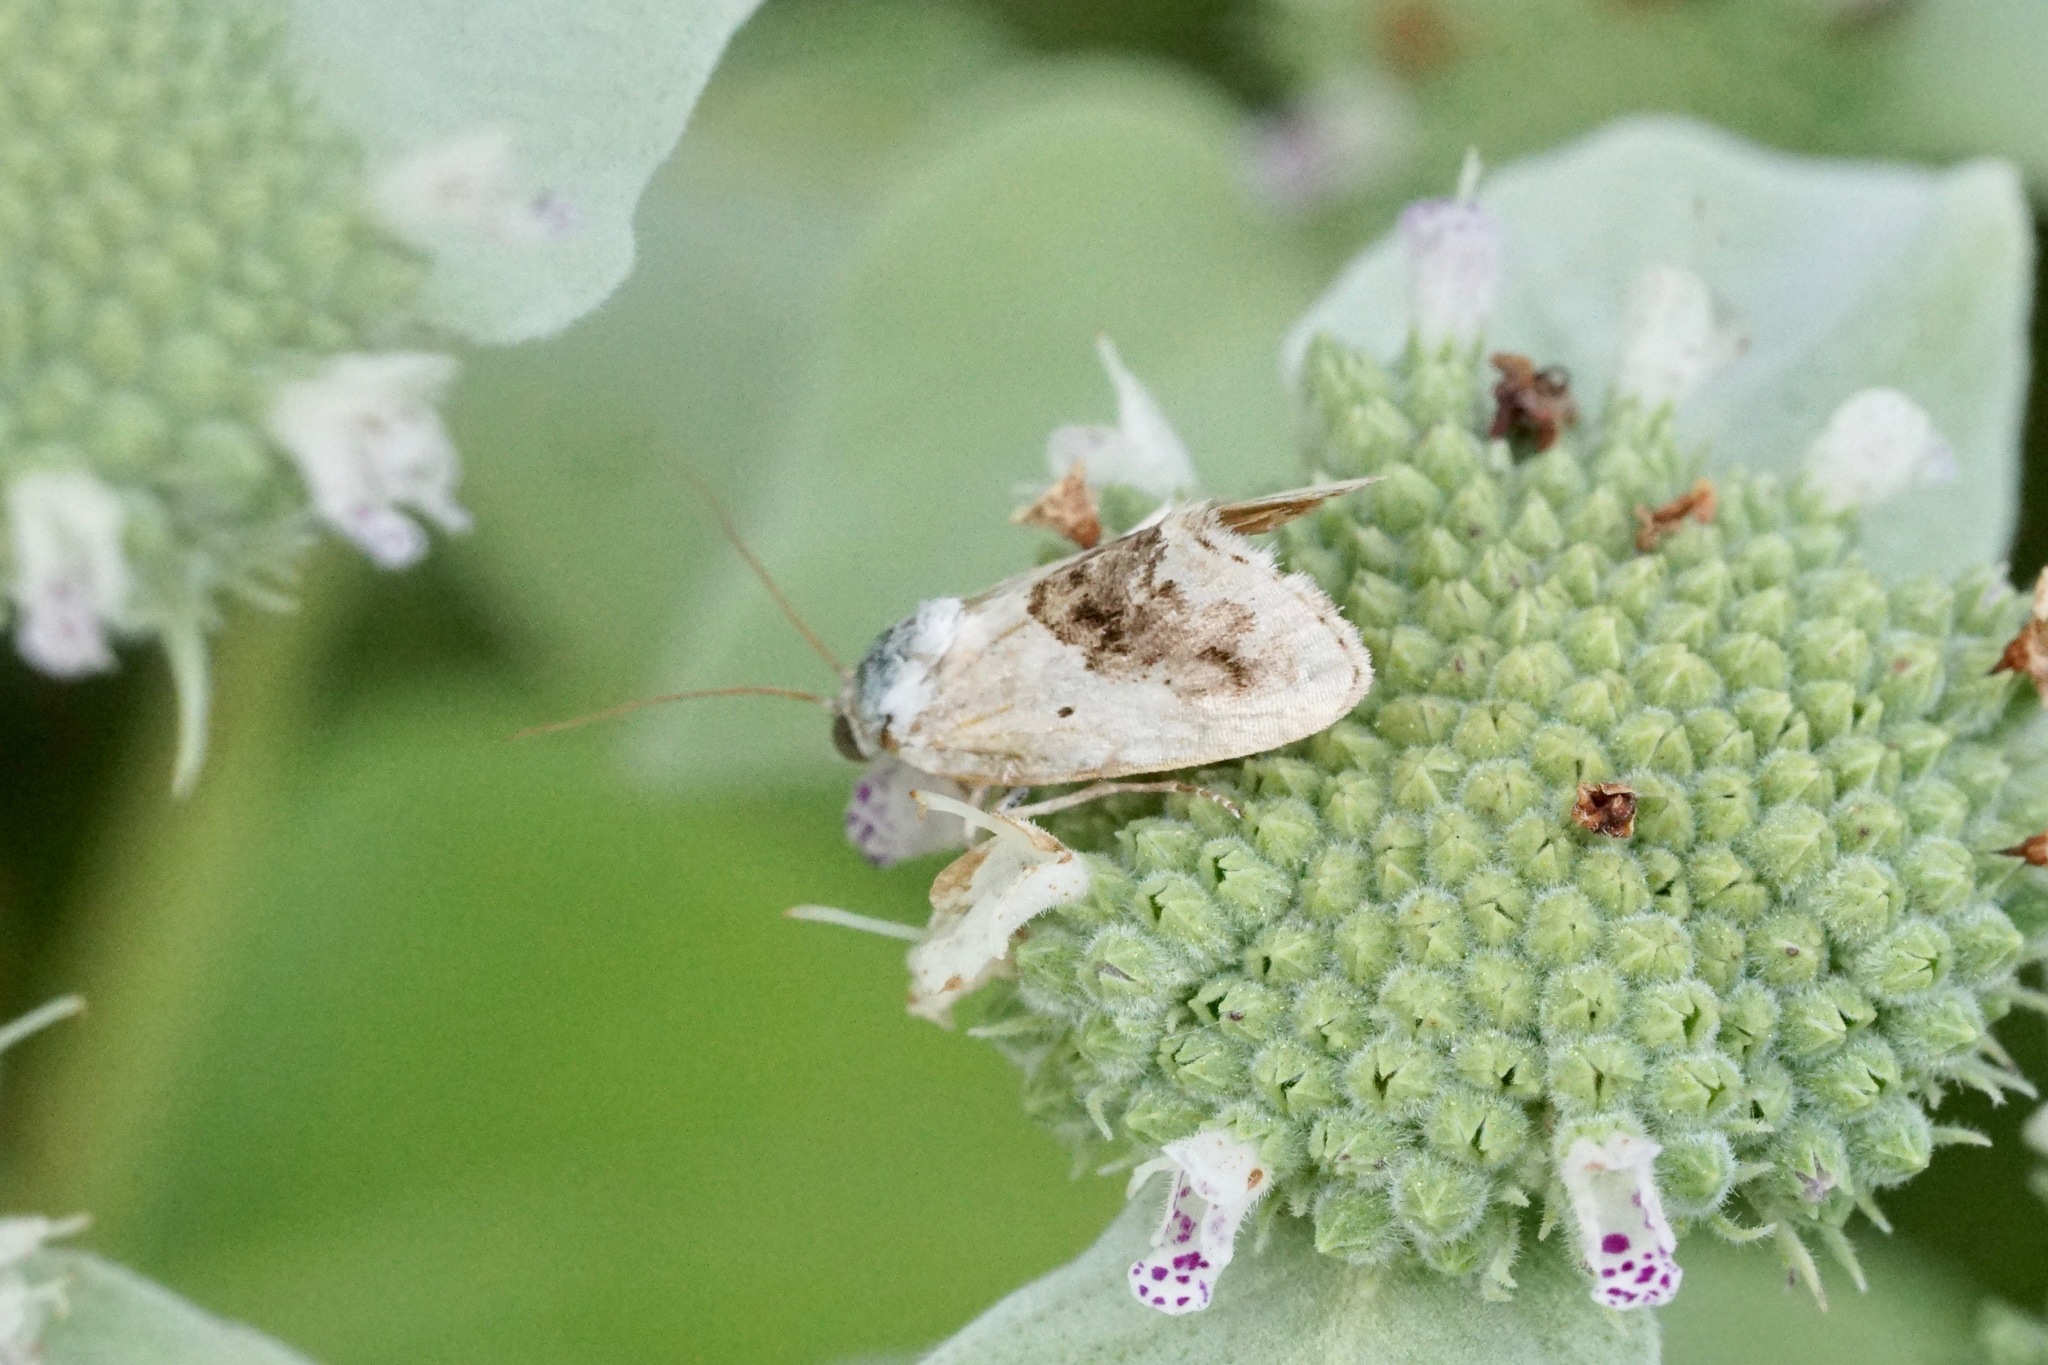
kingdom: Animalia
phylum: Arthropoda
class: Insecta
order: Lepidoptera
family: Noctuidae
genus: Acontia
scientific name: Acontia erastrioides
